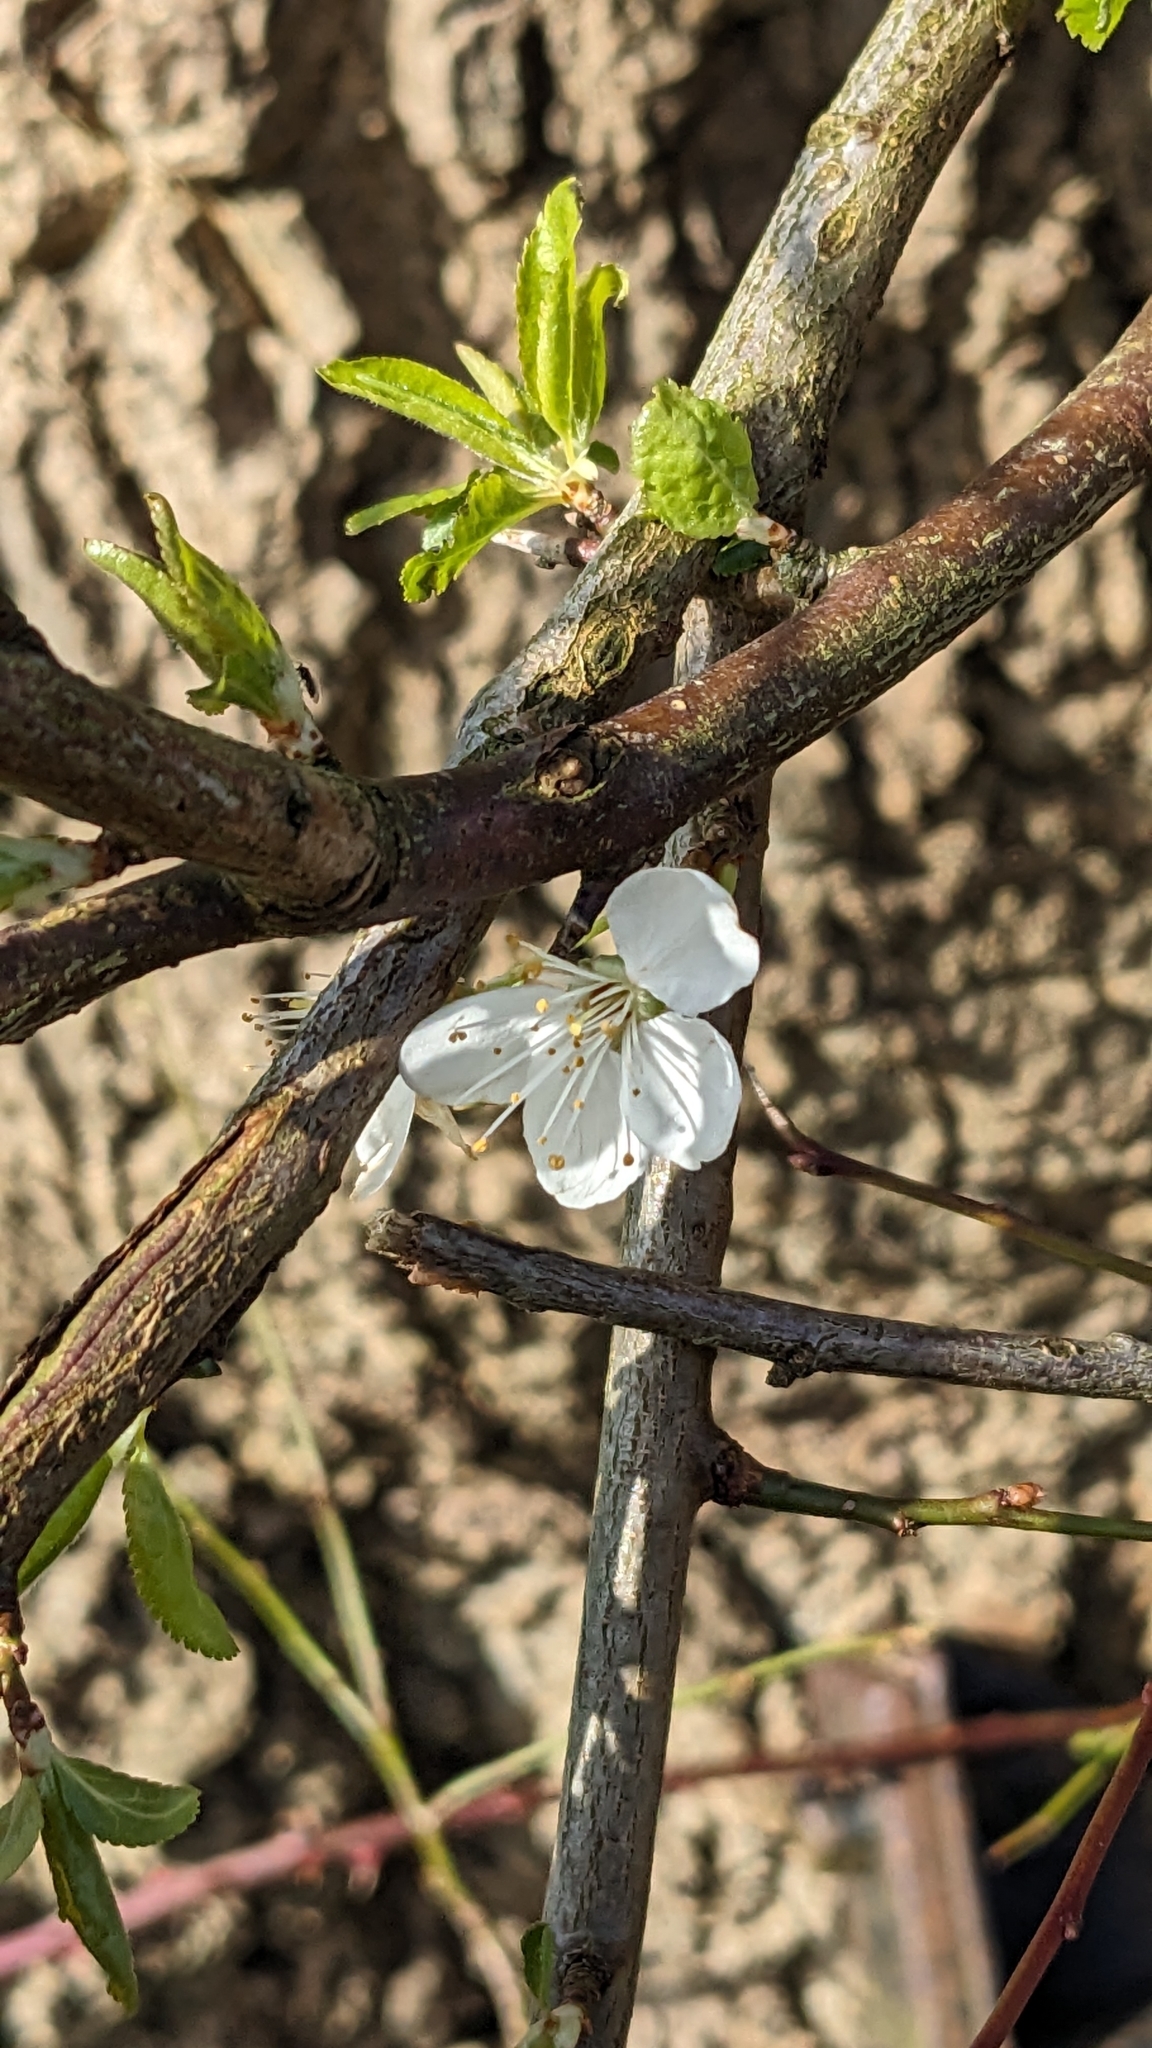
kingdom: Plantae
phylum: Tracheophyta
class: Magnoliopsida
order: Rosales
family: Rosaceae
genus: Prunus
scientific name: Prunus cerasifera
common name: Cherry plum
